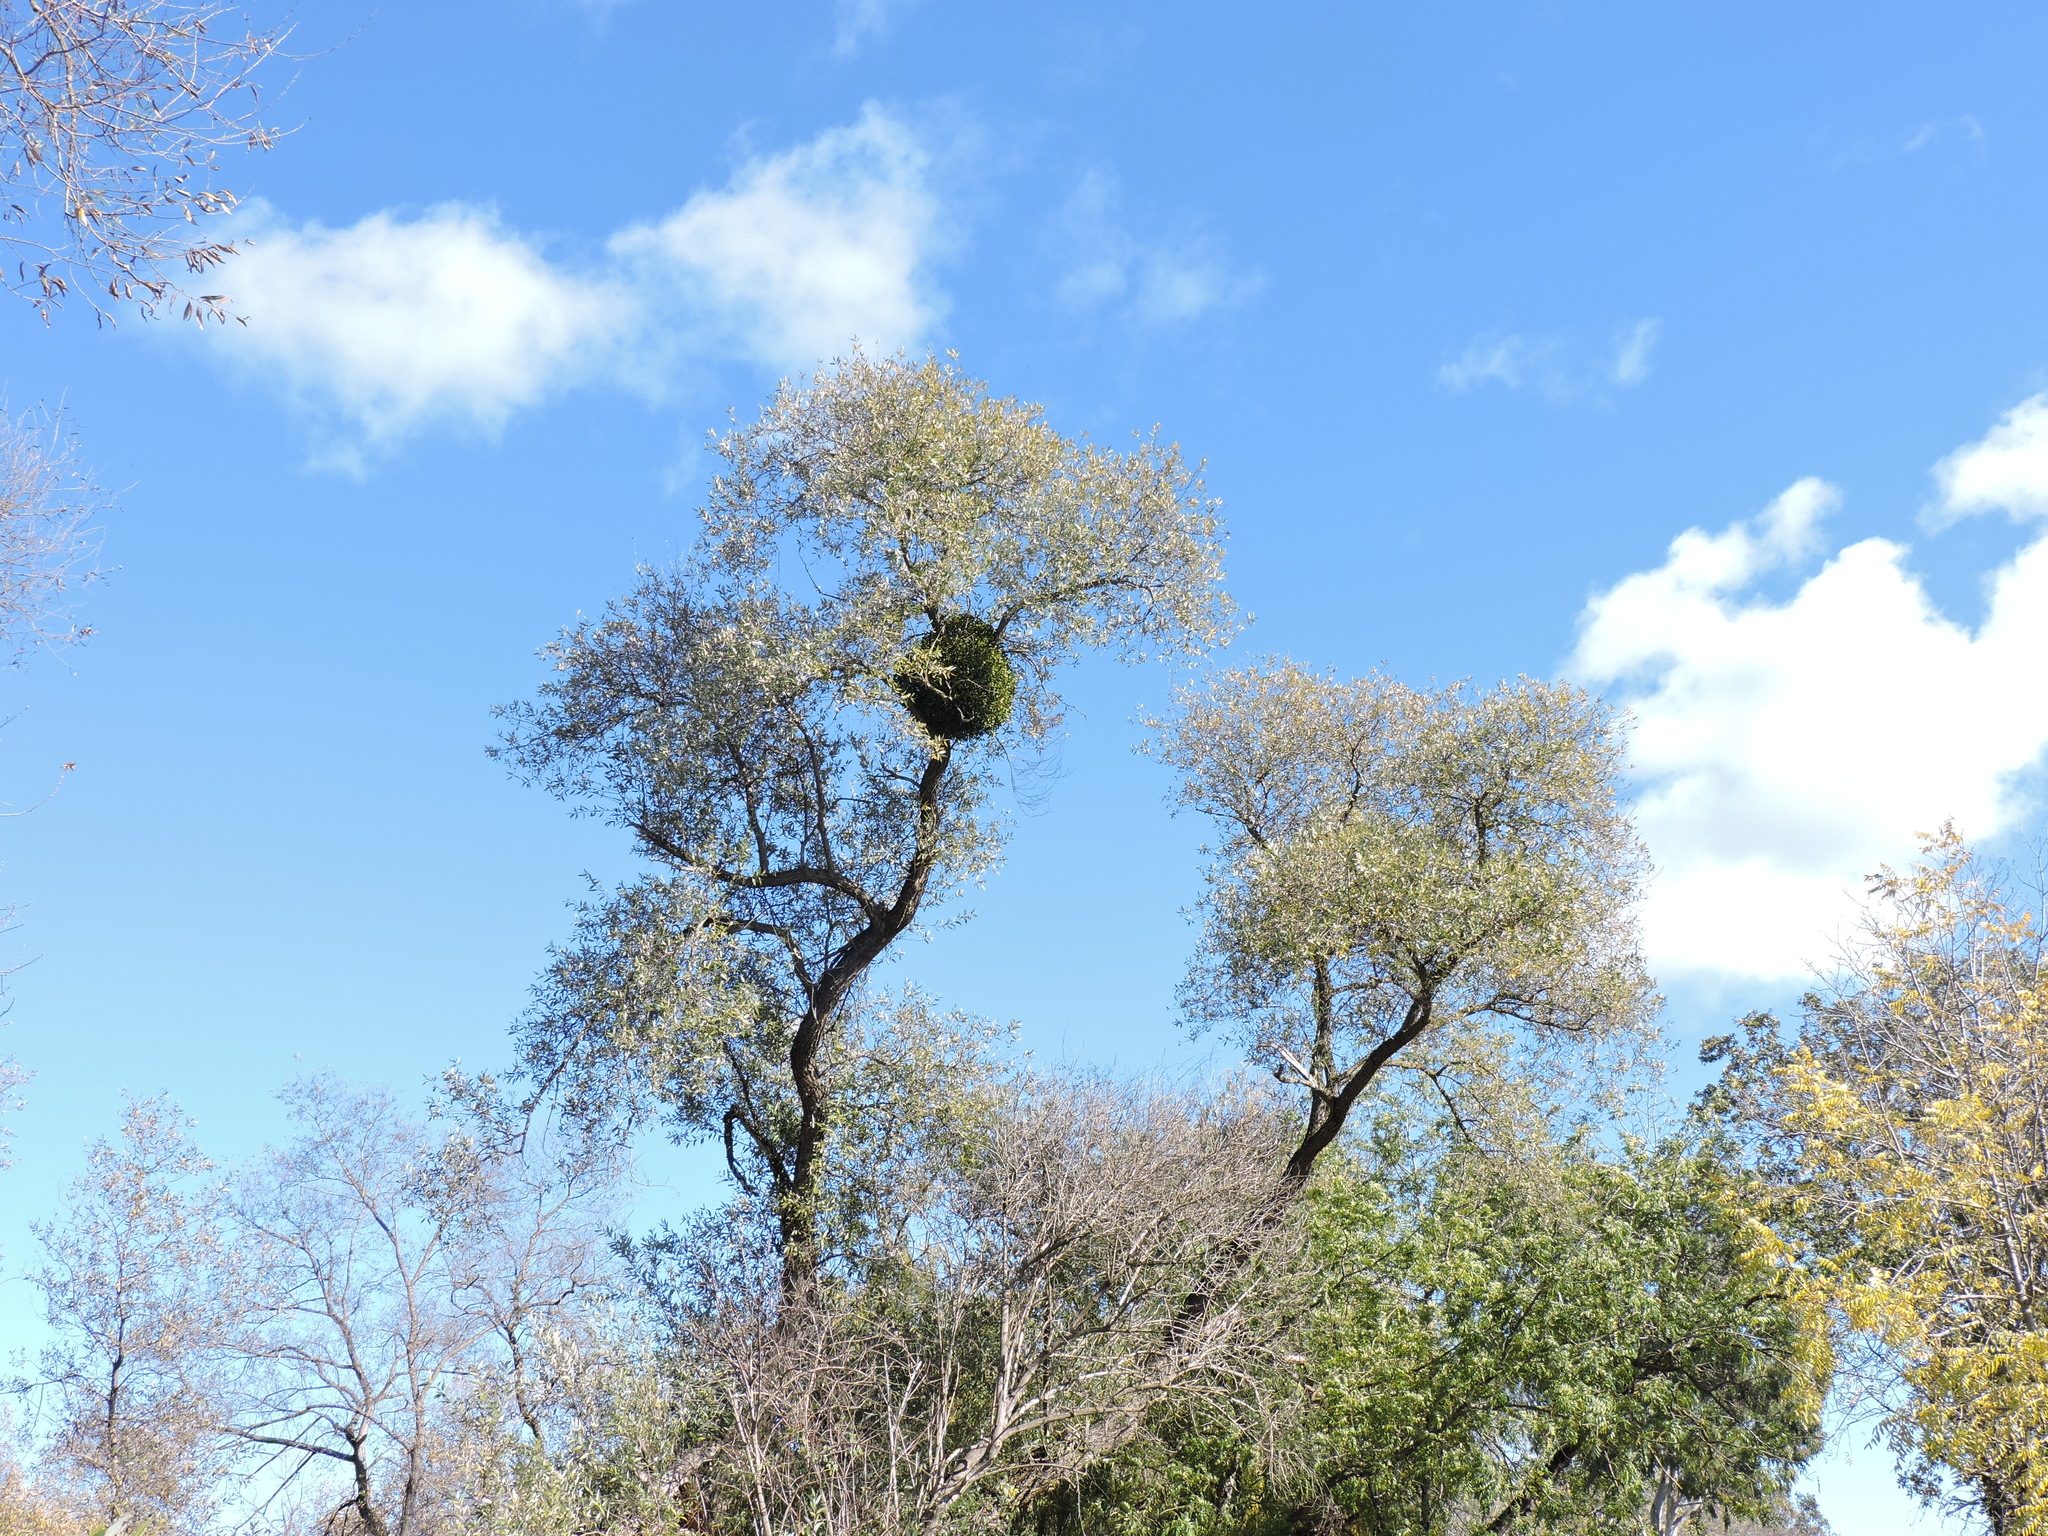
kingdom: Plantae
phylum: Tracheophyta
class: Magnoliopsida
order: Santalales
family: Viscaceae
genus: Viscum
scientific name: Viscum album
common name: Mistletoe
